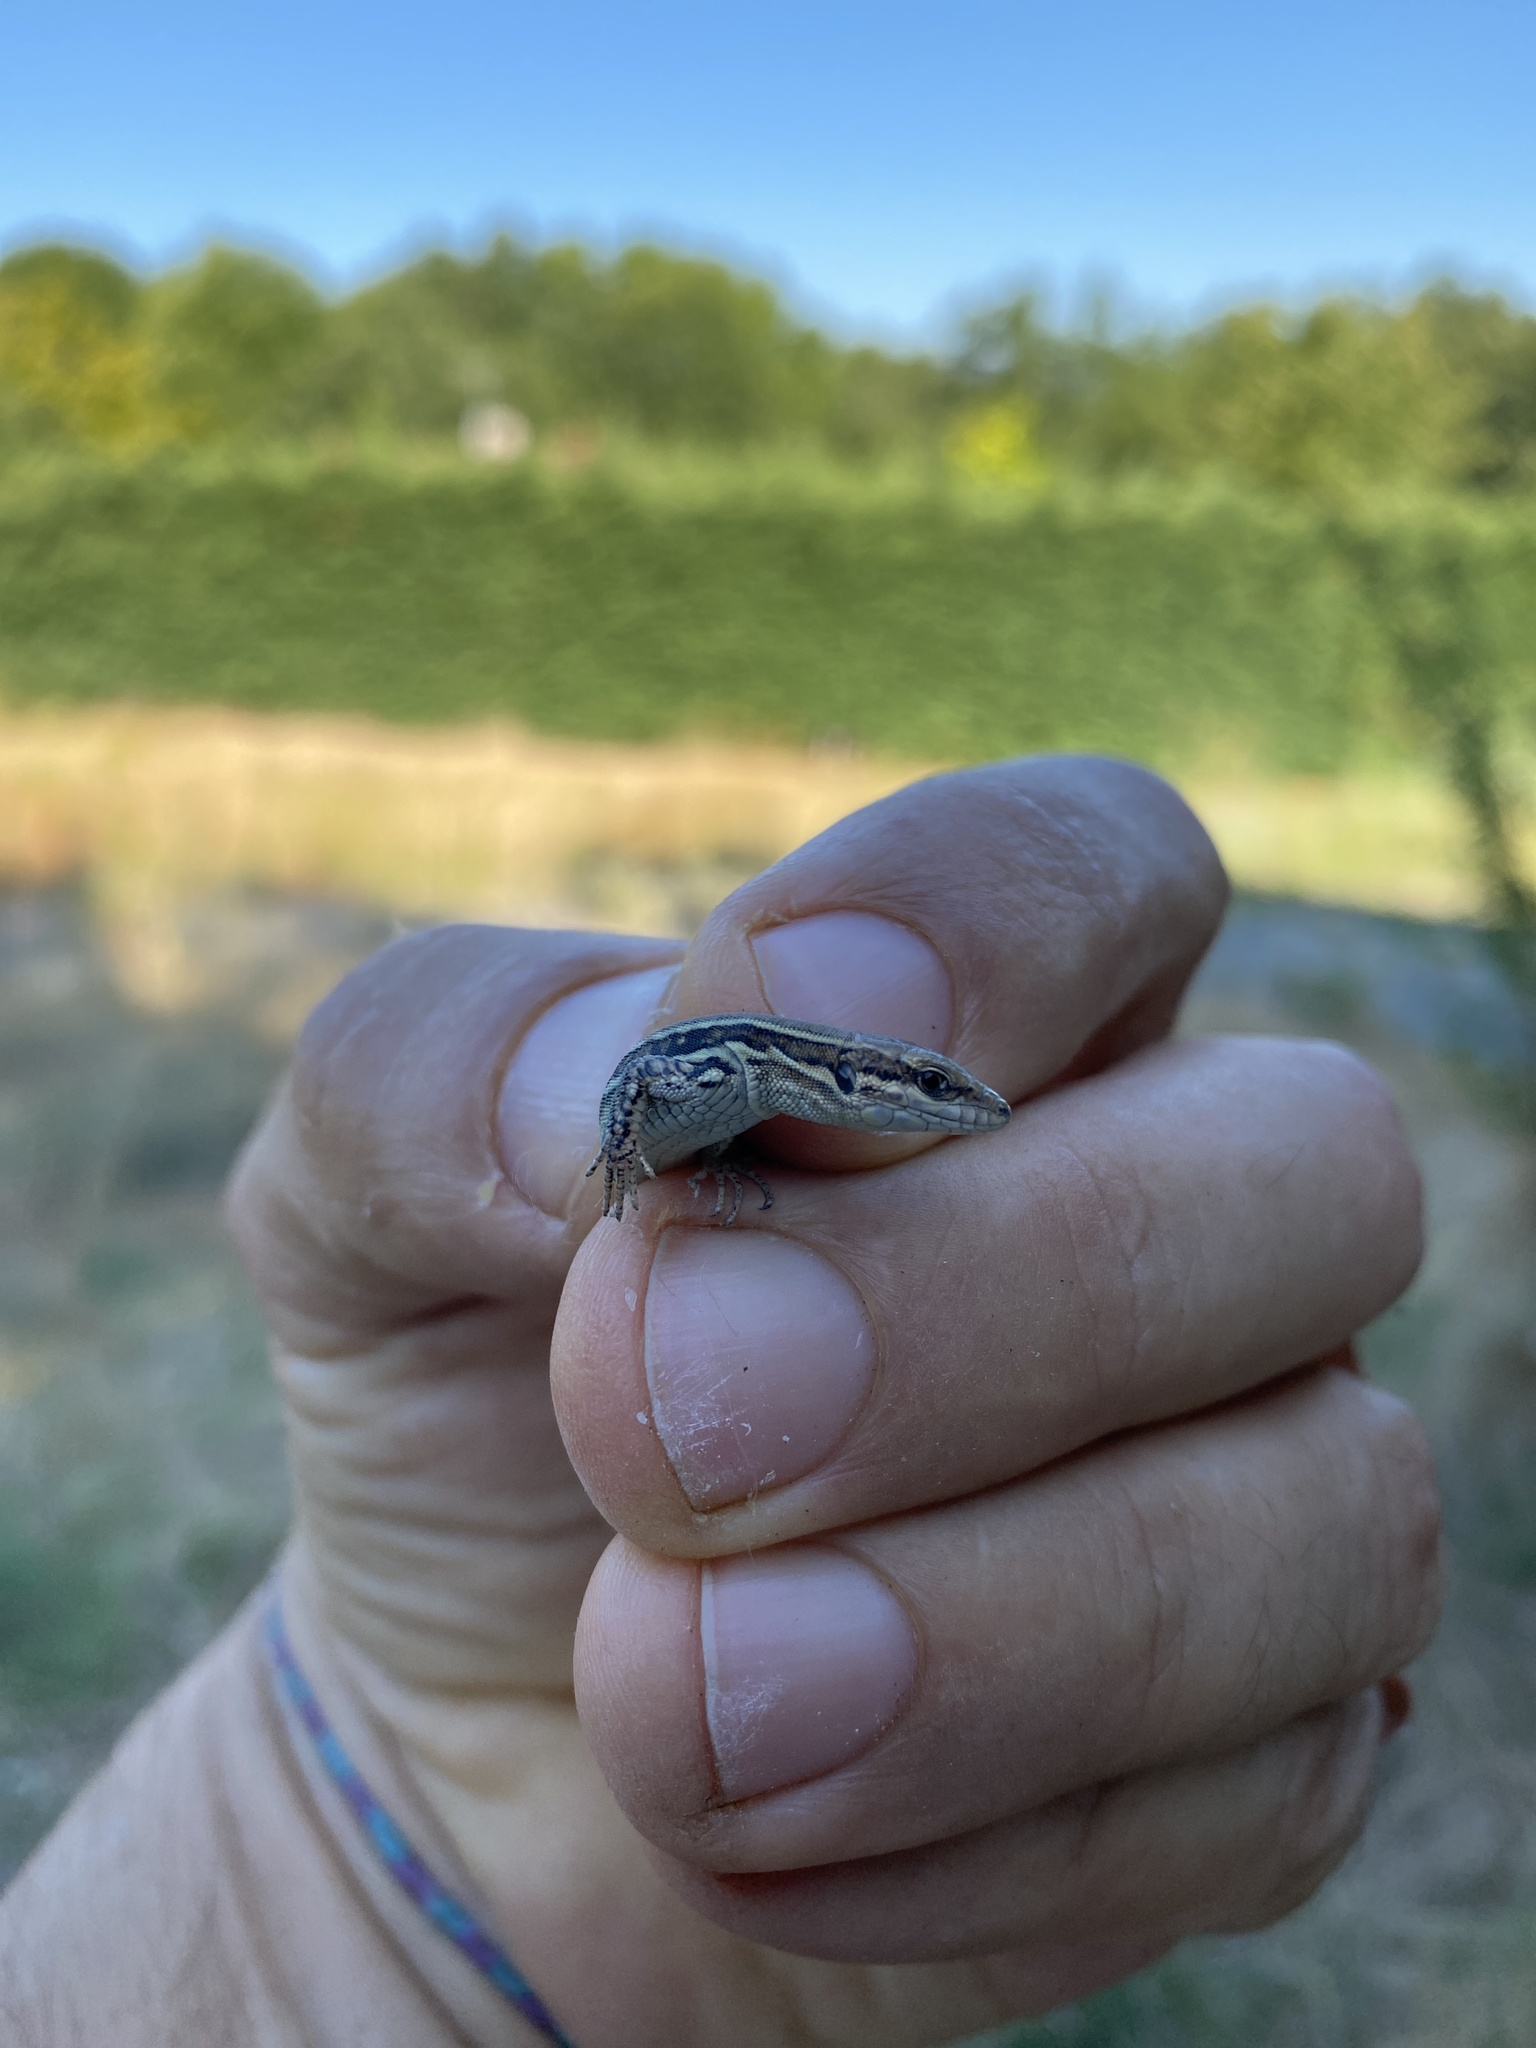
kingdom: Animalia
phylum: Chordata
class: Squamata
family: Lacertidae
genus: Podarcis
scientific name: Podarcis muralis
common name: Common wall lizard
